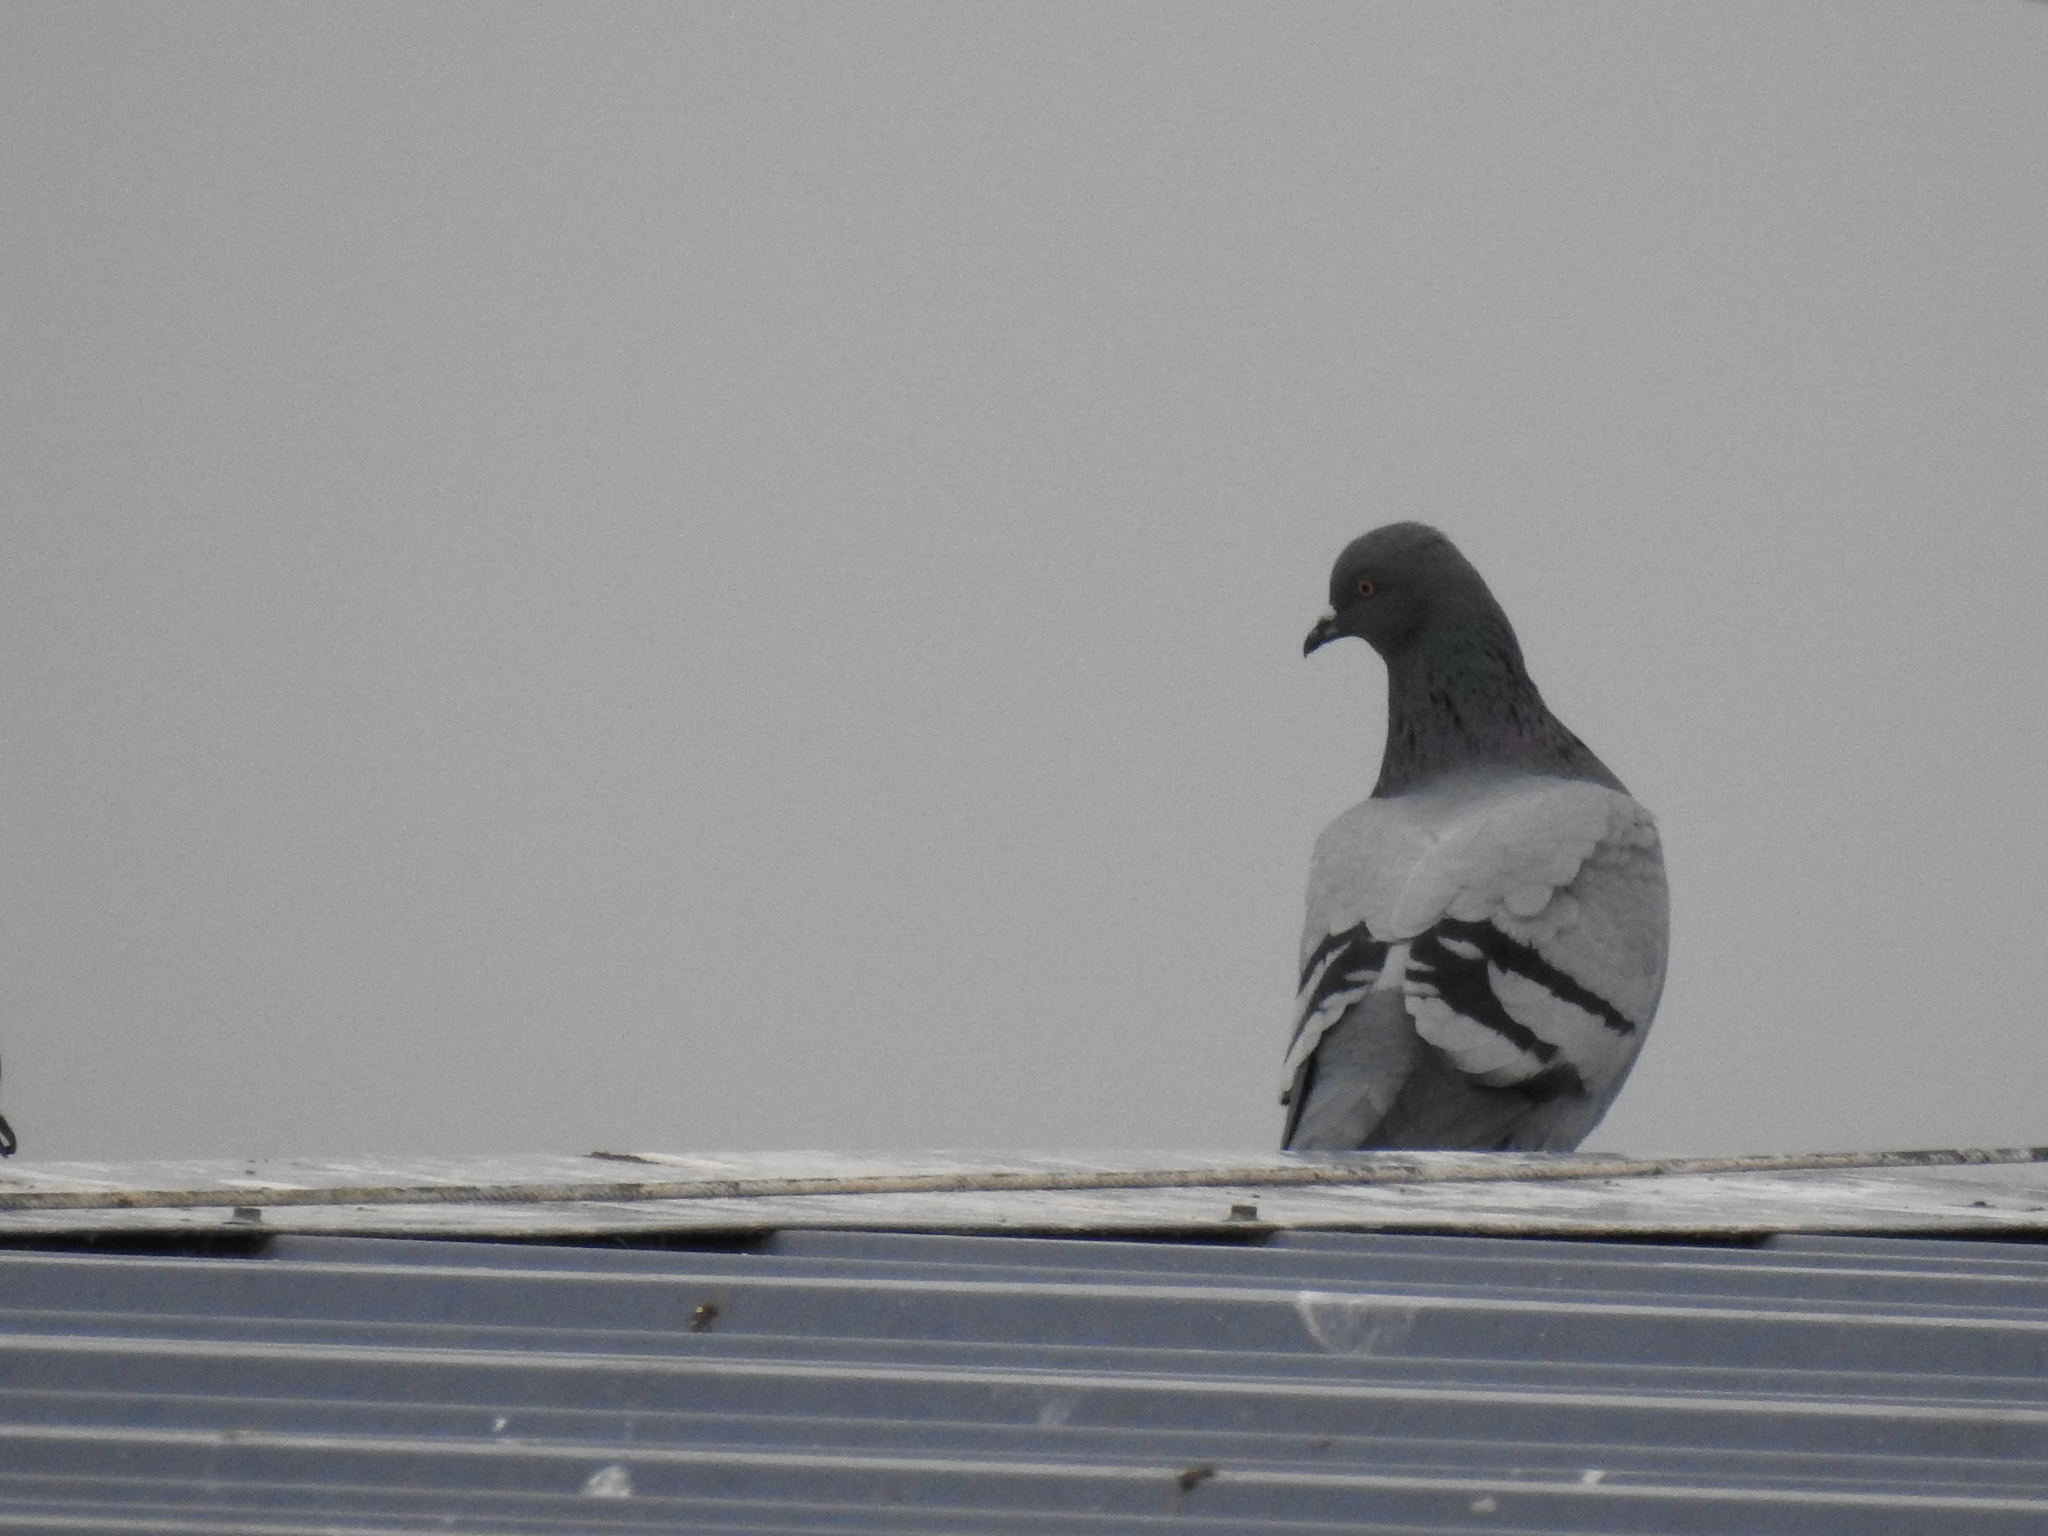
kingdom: Animalia
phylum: Chordata
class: Aves
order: Columbiformes
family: Columbidae
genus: Columba
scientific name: Columba livia
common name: Rock pigeon
